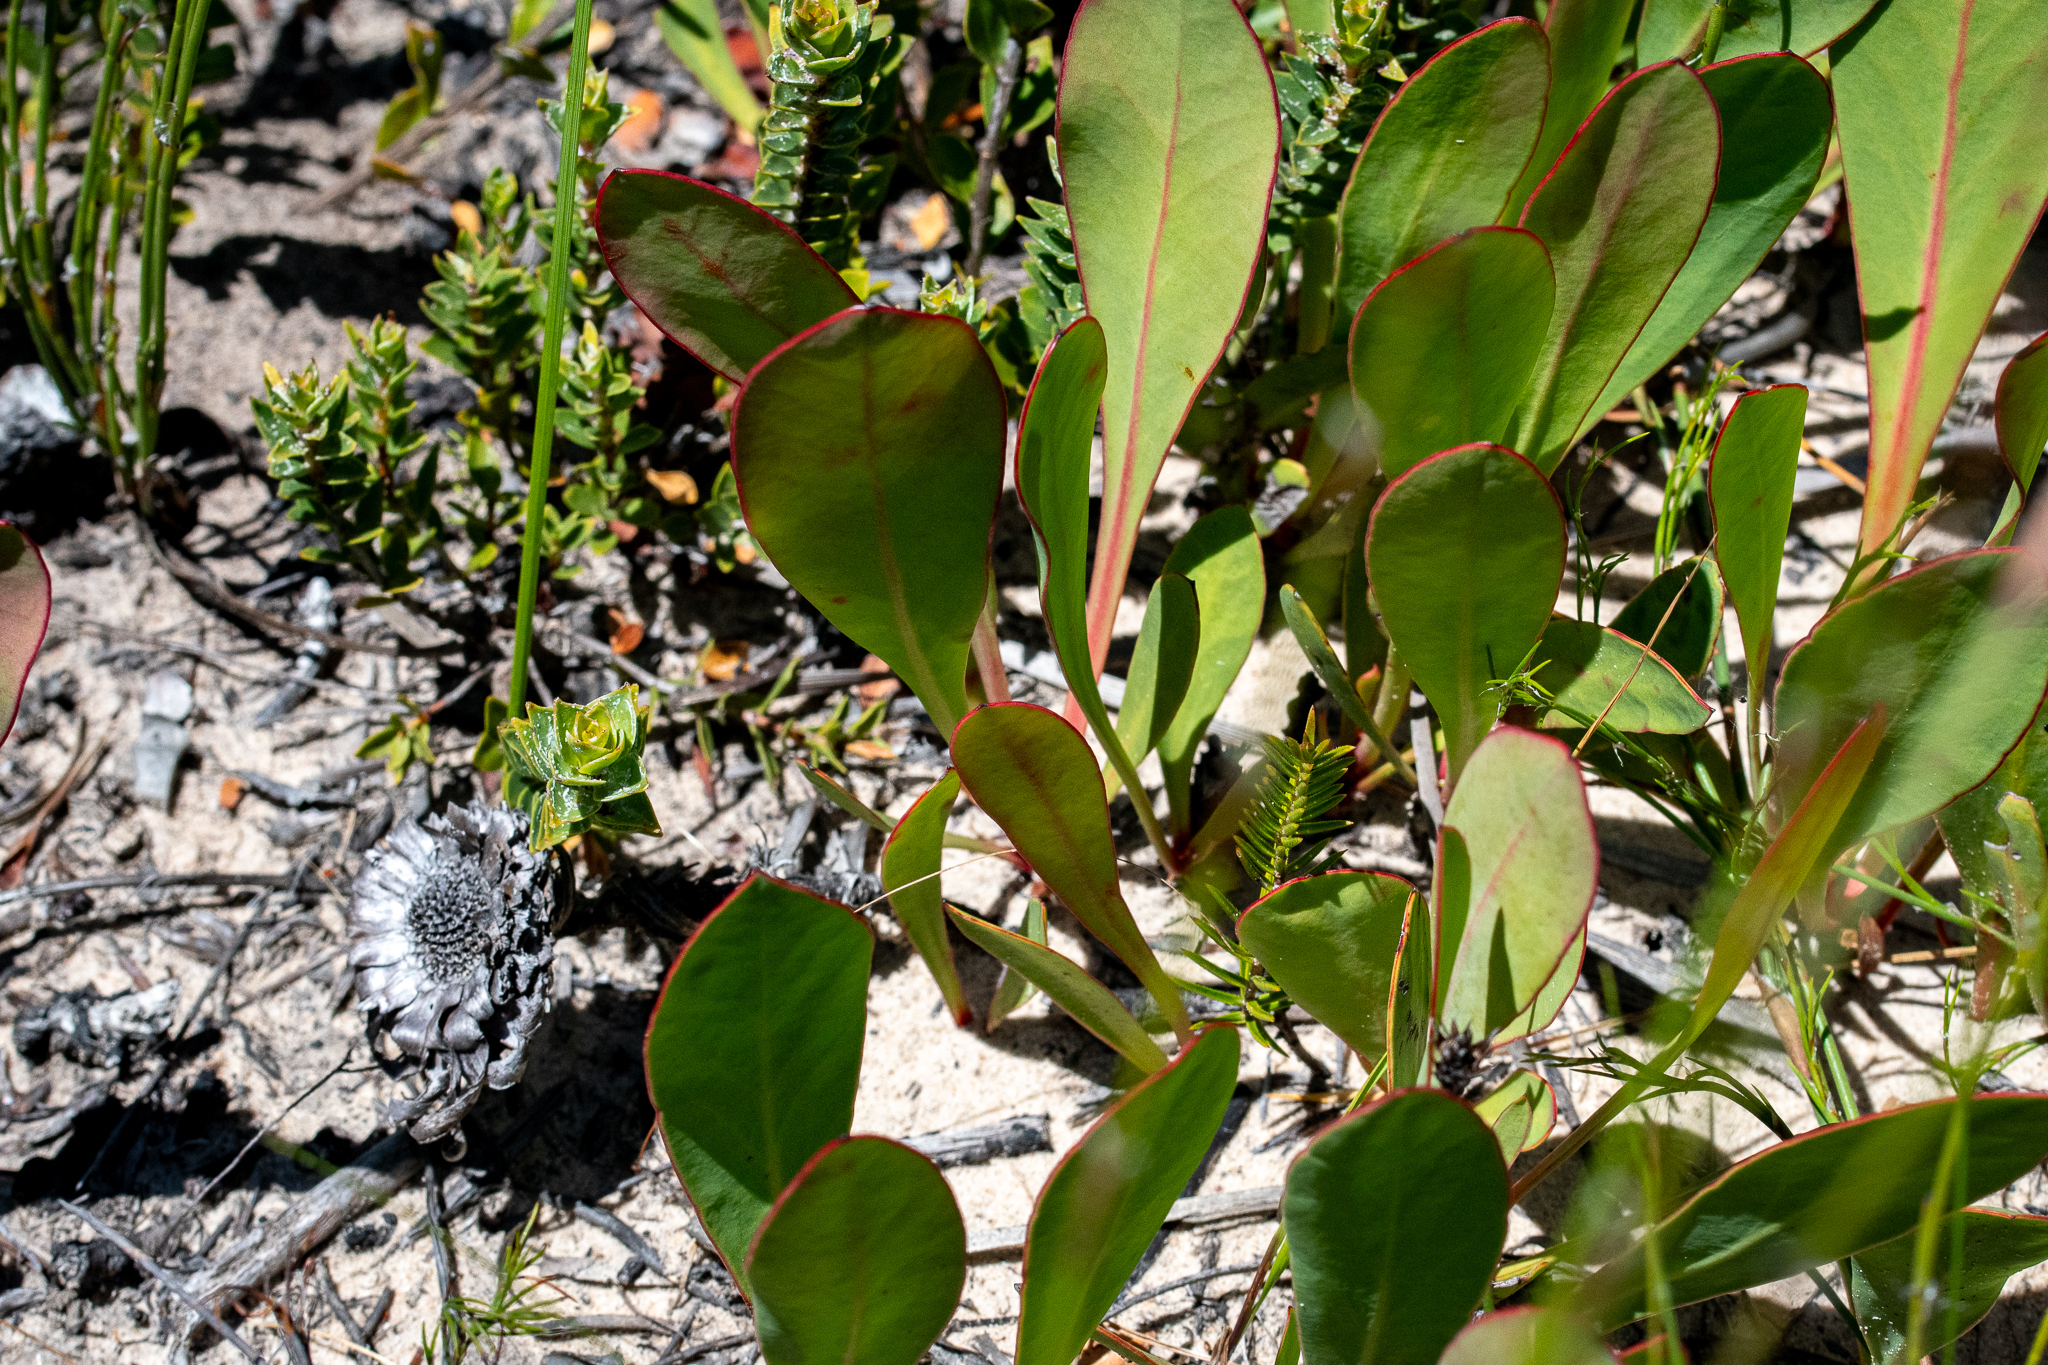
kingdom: Plantae
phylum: Tracheophyta
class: Magnoliopsida
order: Proteales
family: Proteaceae
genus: Protea
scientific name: Protea acaulos
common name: Common ground sugarbush
